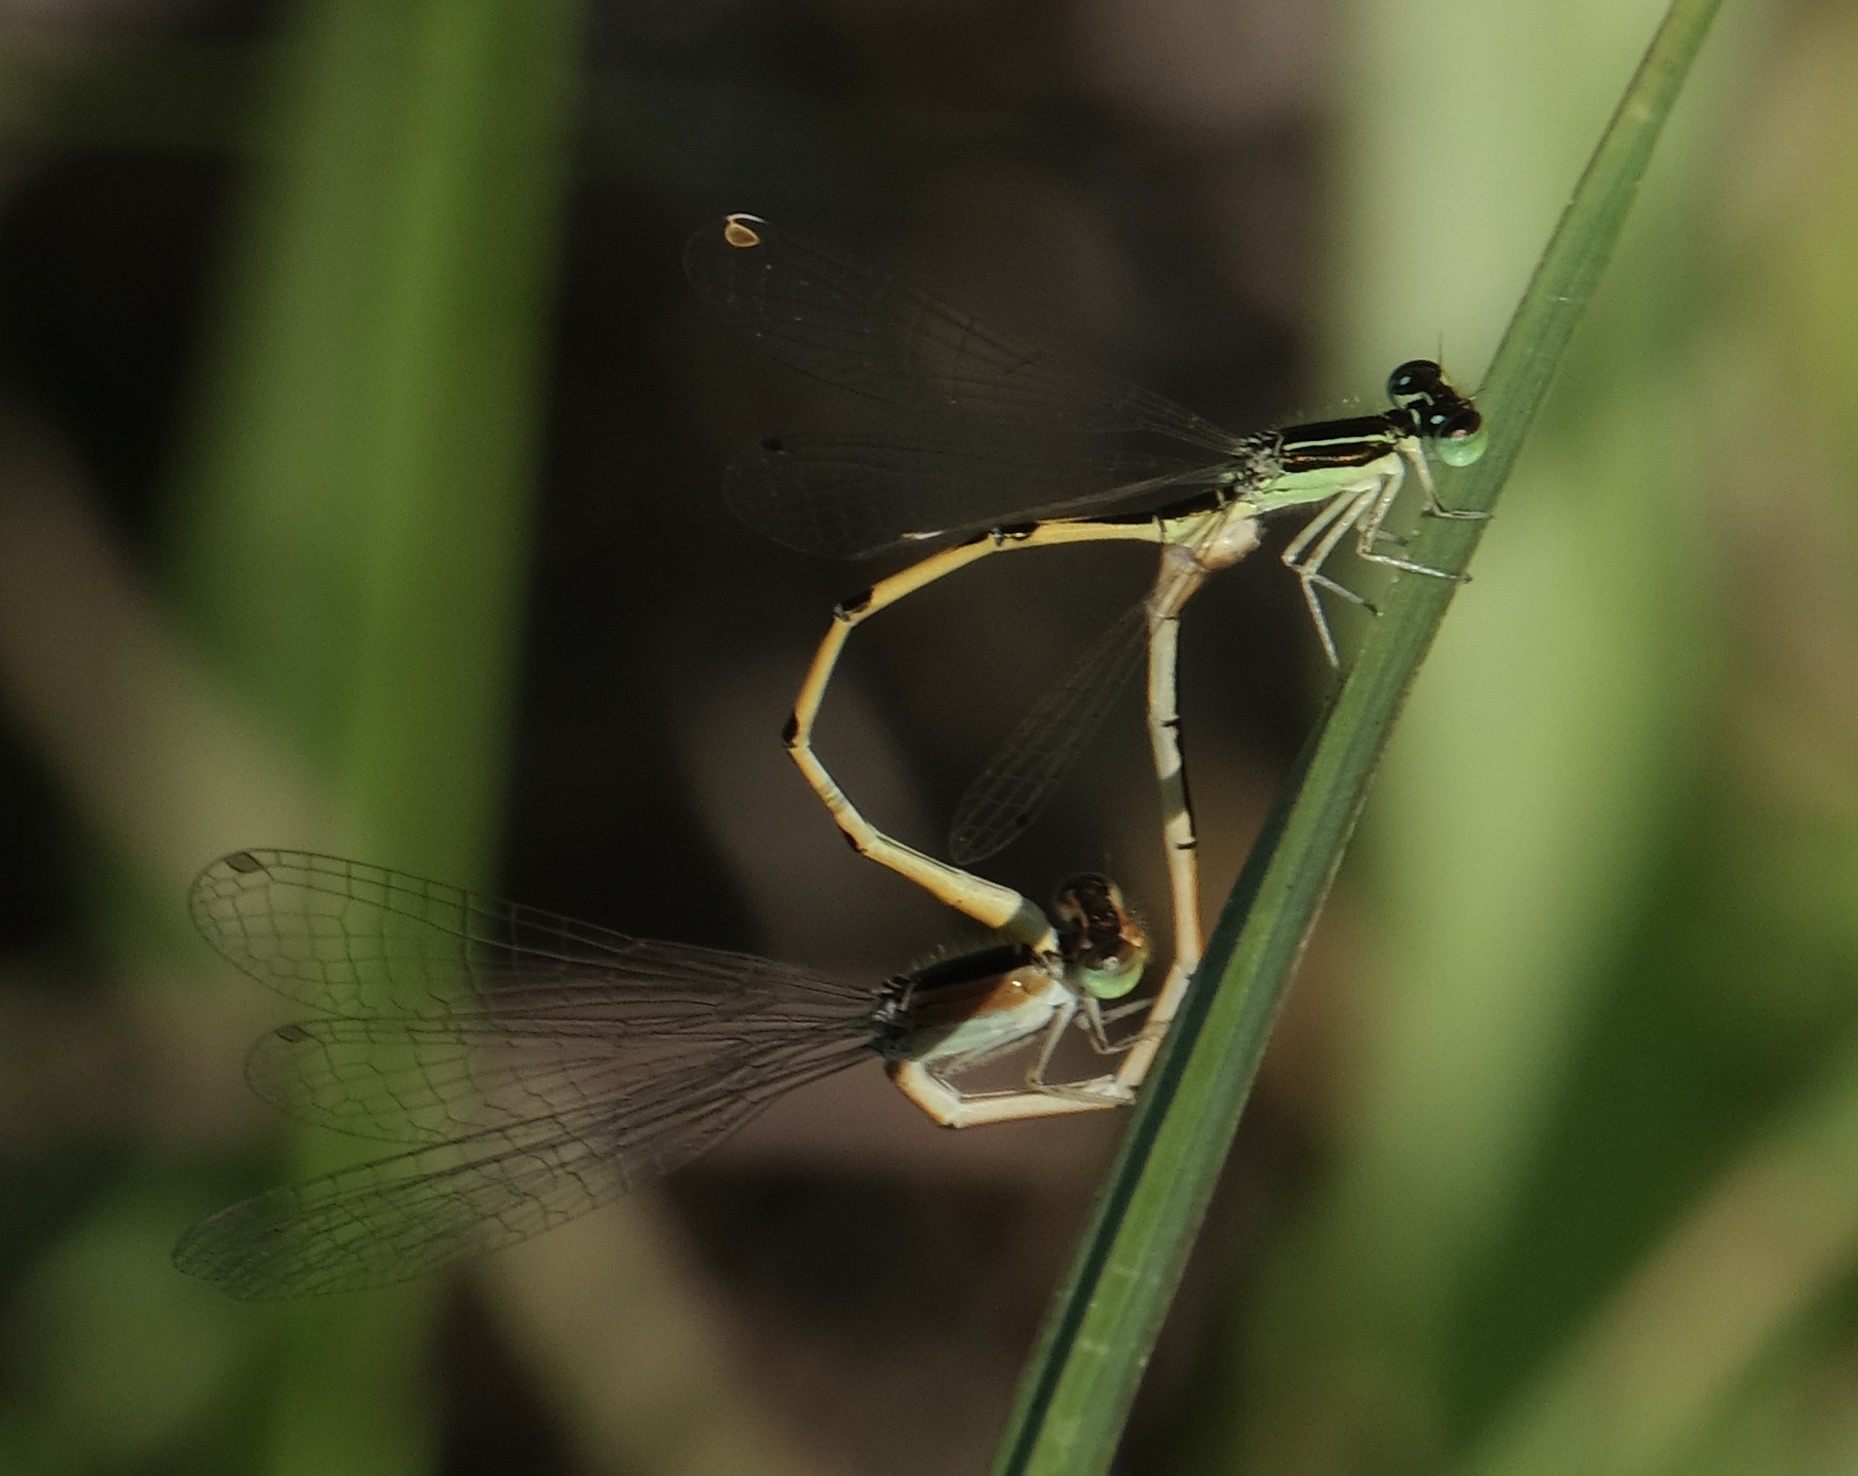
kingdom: Animalia
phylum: Arthropoda
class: Insecta
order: Odonata
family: Coenagrionidae
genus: Ischnura
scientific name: Ischnura hastata
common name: Citrine forktail
